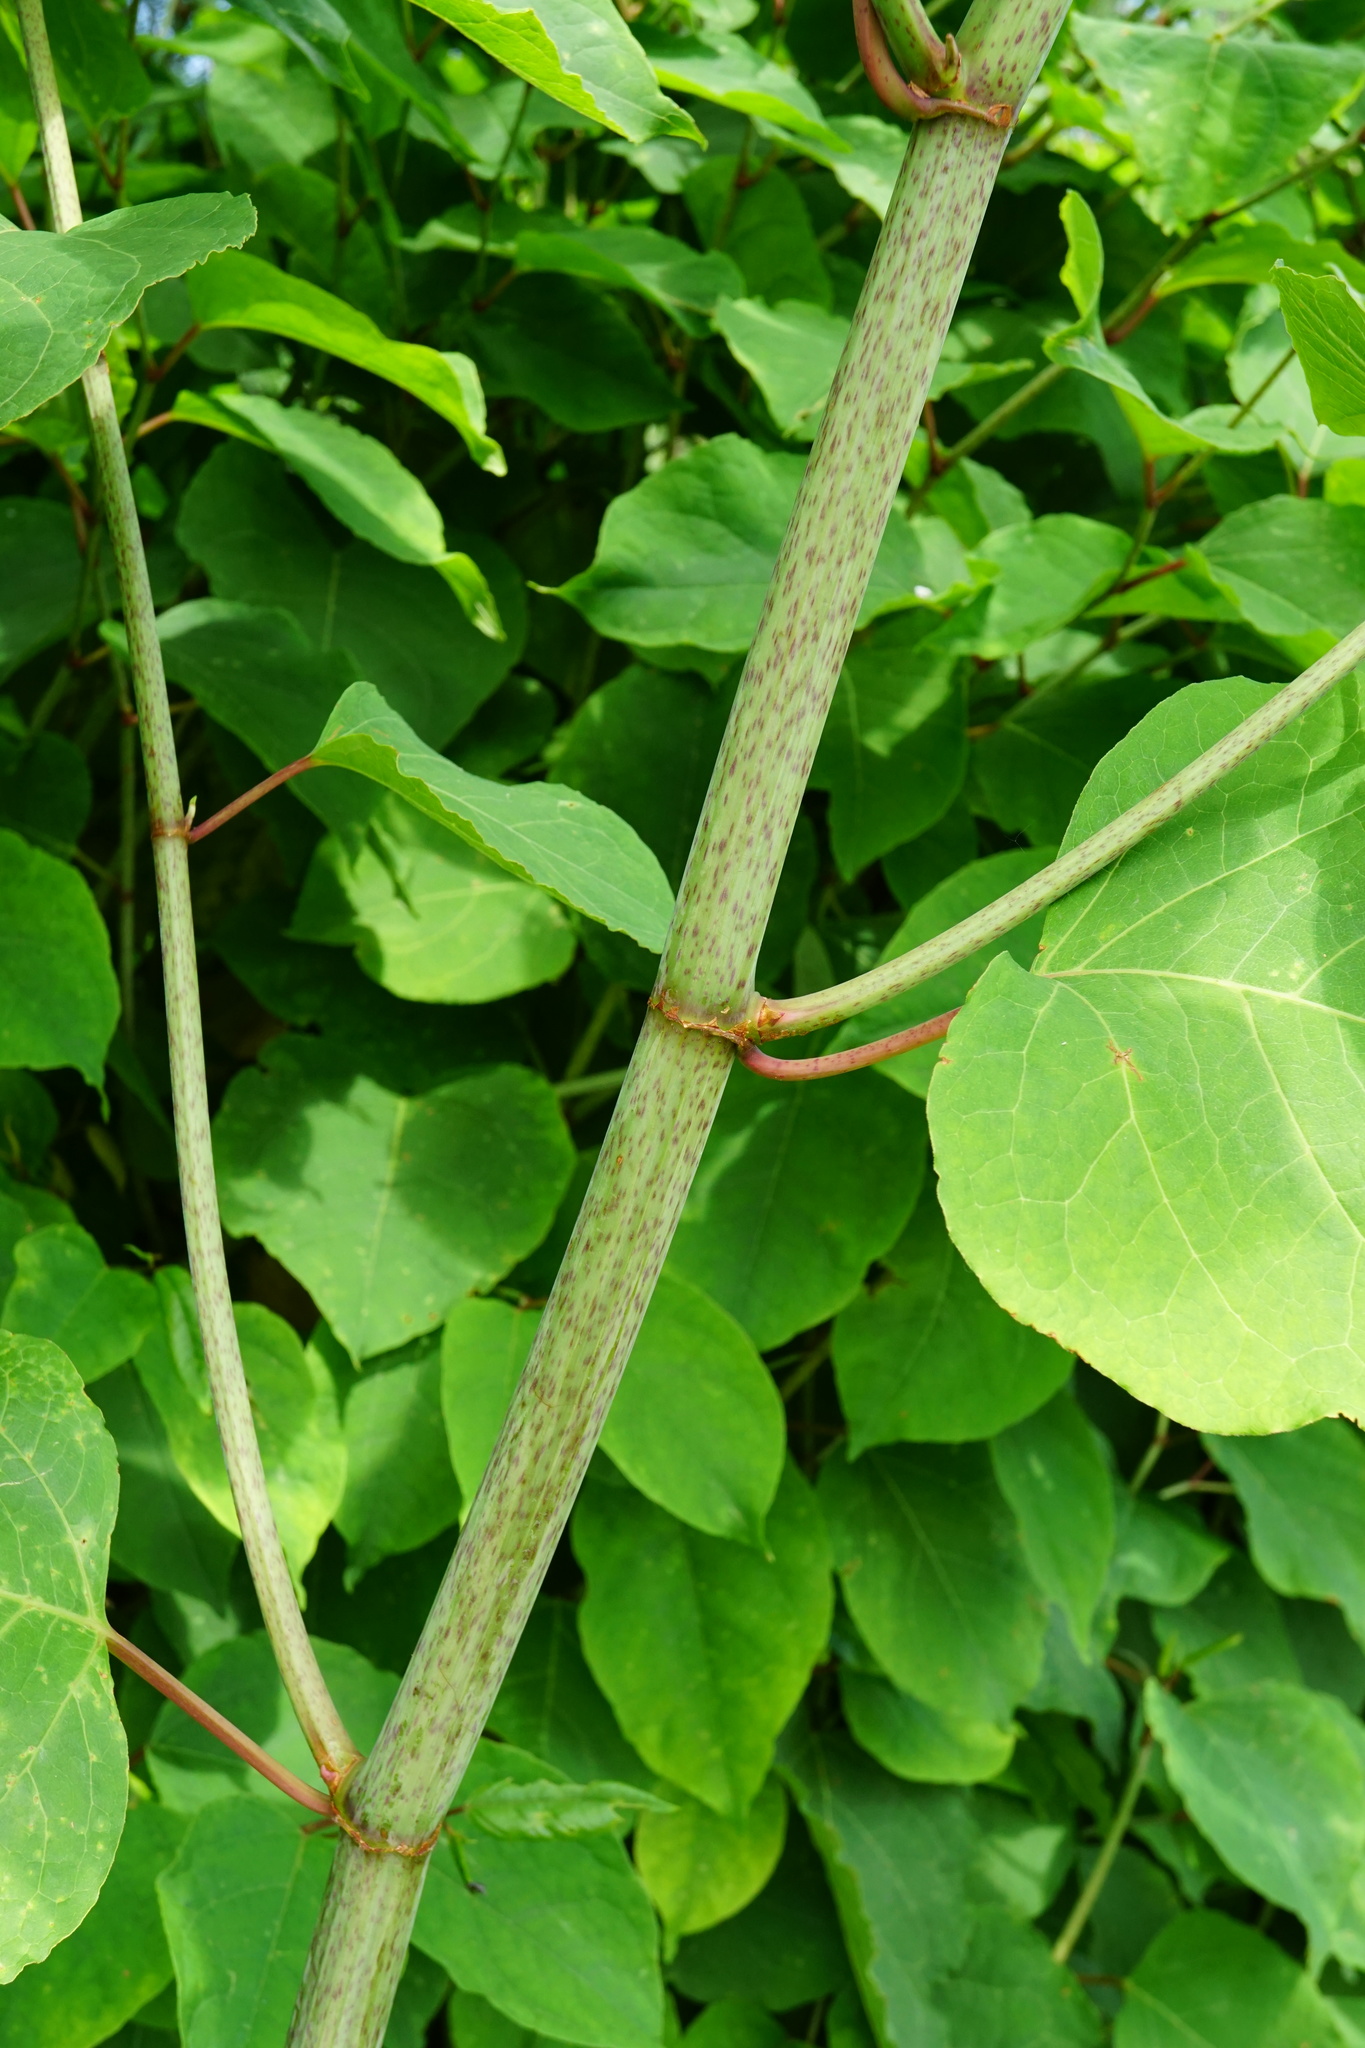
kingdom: Plantae
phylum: Tracheophyta
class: Magnoliopsida
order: Caryophyllales
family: Polygonaceae
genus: Reynoutria
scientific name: Reynoutria bohemica
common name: Bohemian knotweed
